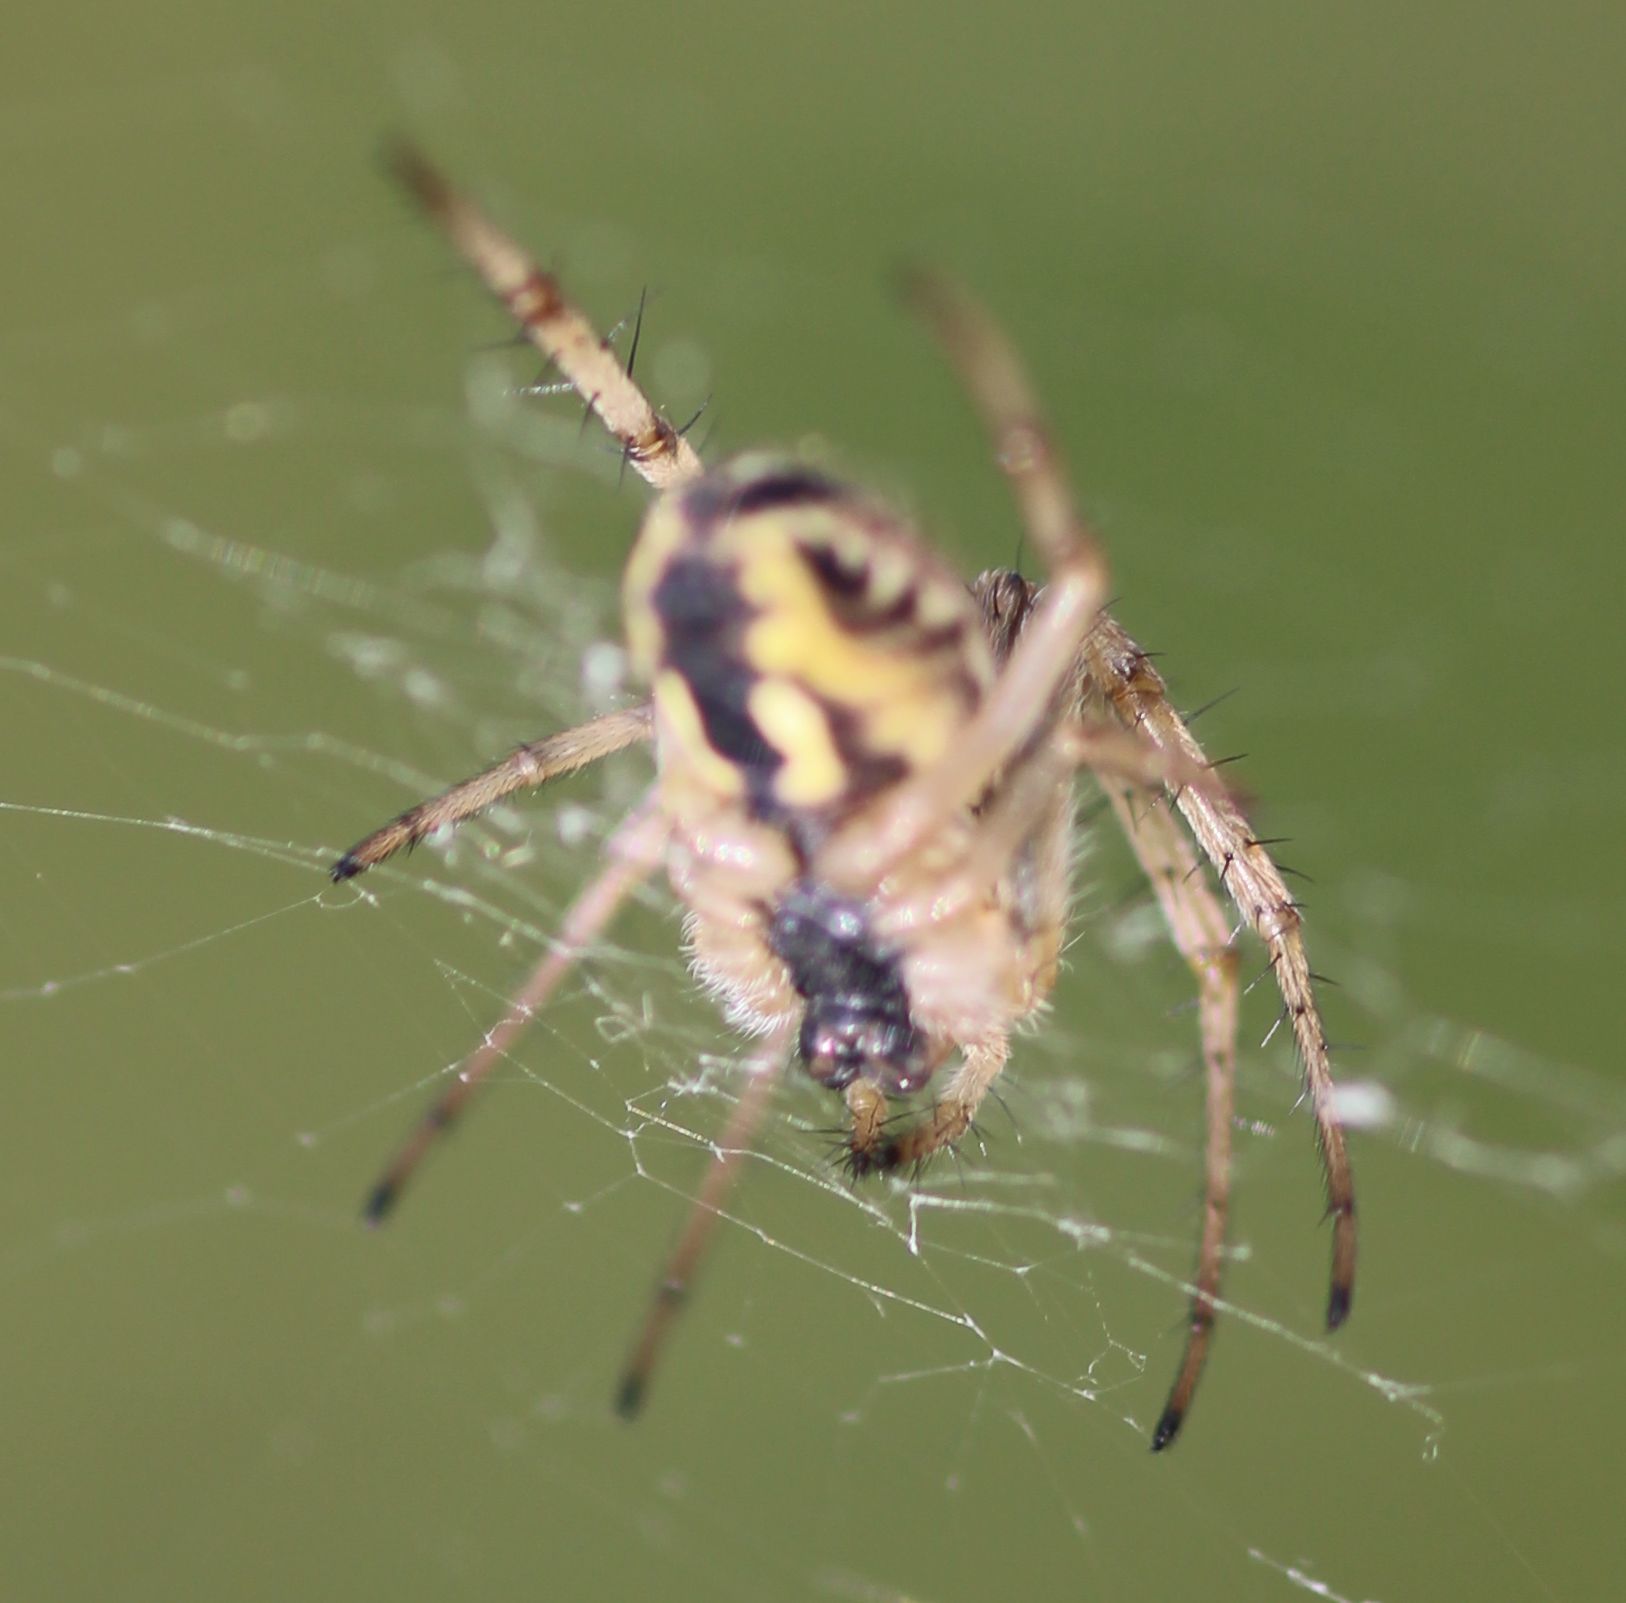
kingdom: Animalia
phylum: Arthropoda
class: Arachnida
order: Araneae
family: Araneidae
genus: Neoscona
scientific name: Neoscona adianta
